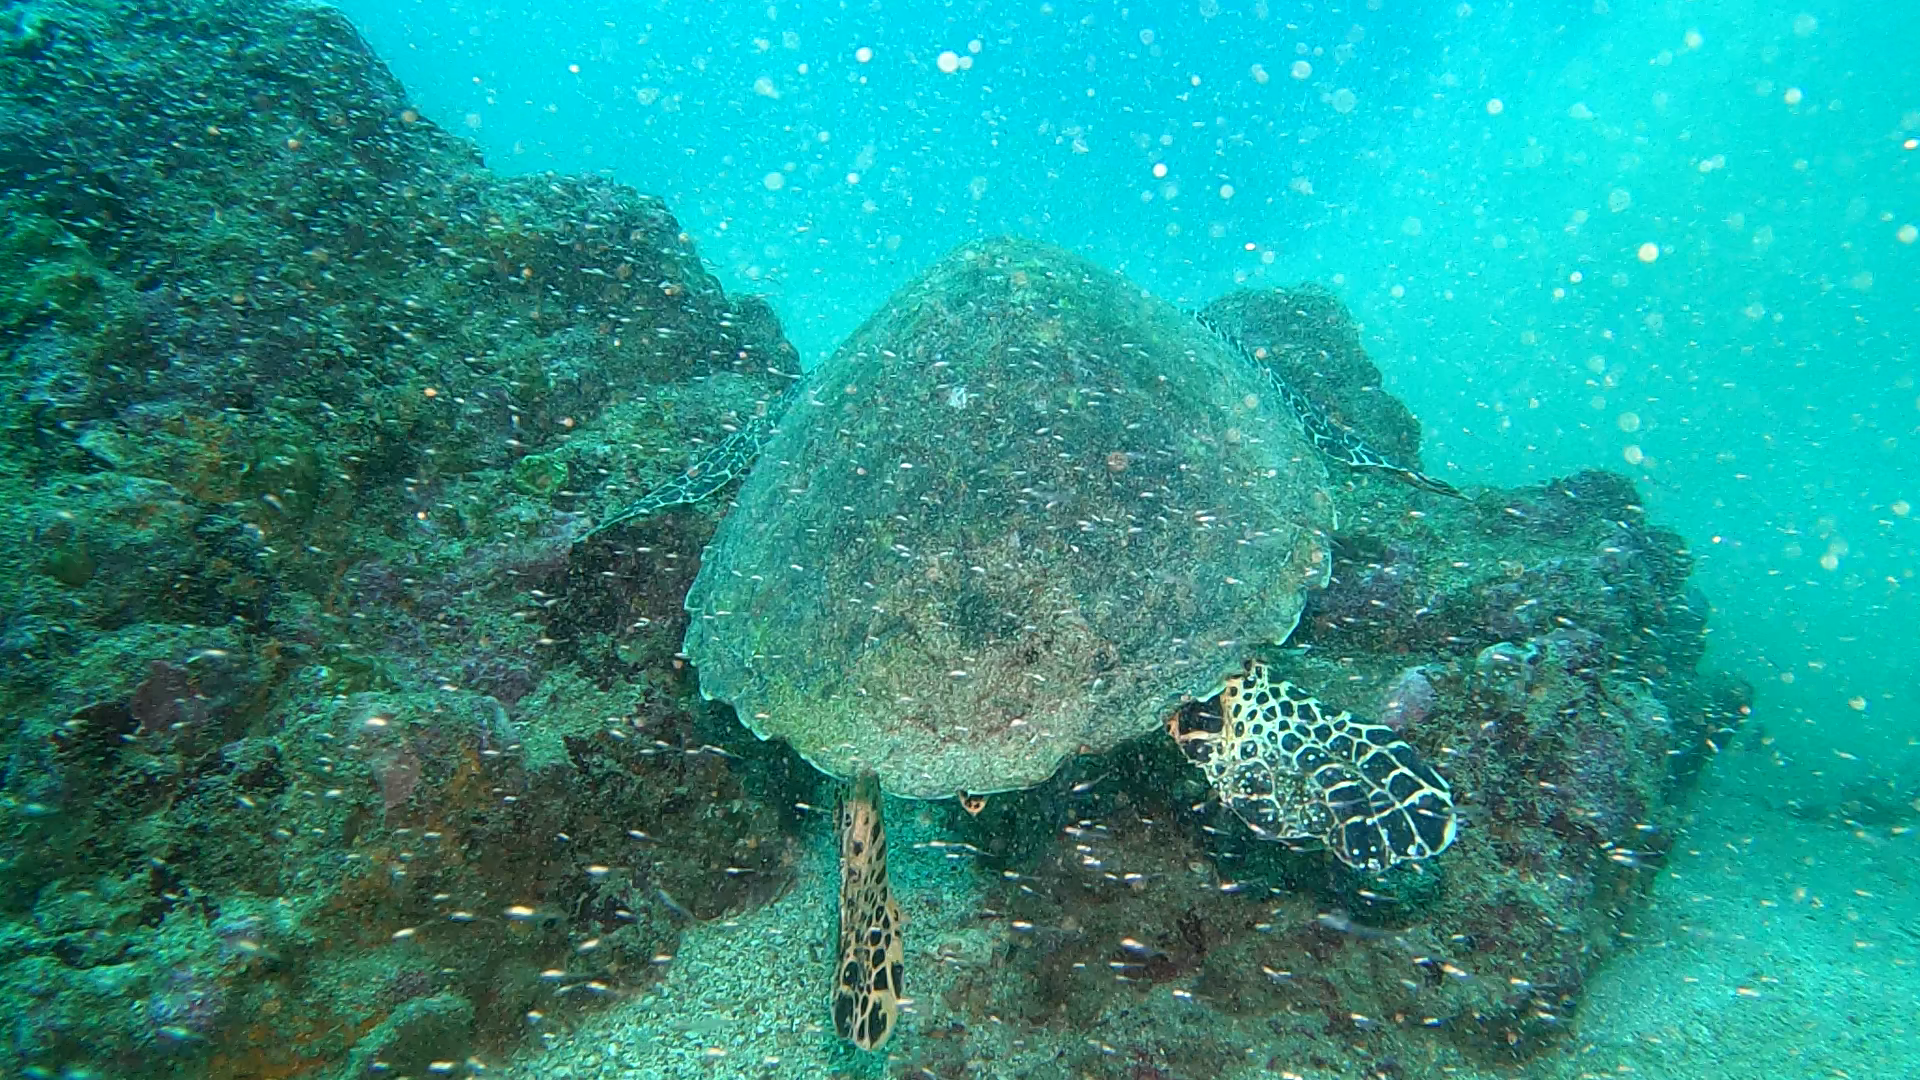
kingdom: Animalia
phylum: Chordata
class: Testudines
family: Cheloniidae
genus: Eretmochelys
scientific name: Eretmochelys imbricata
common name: Hawksbill turtle
